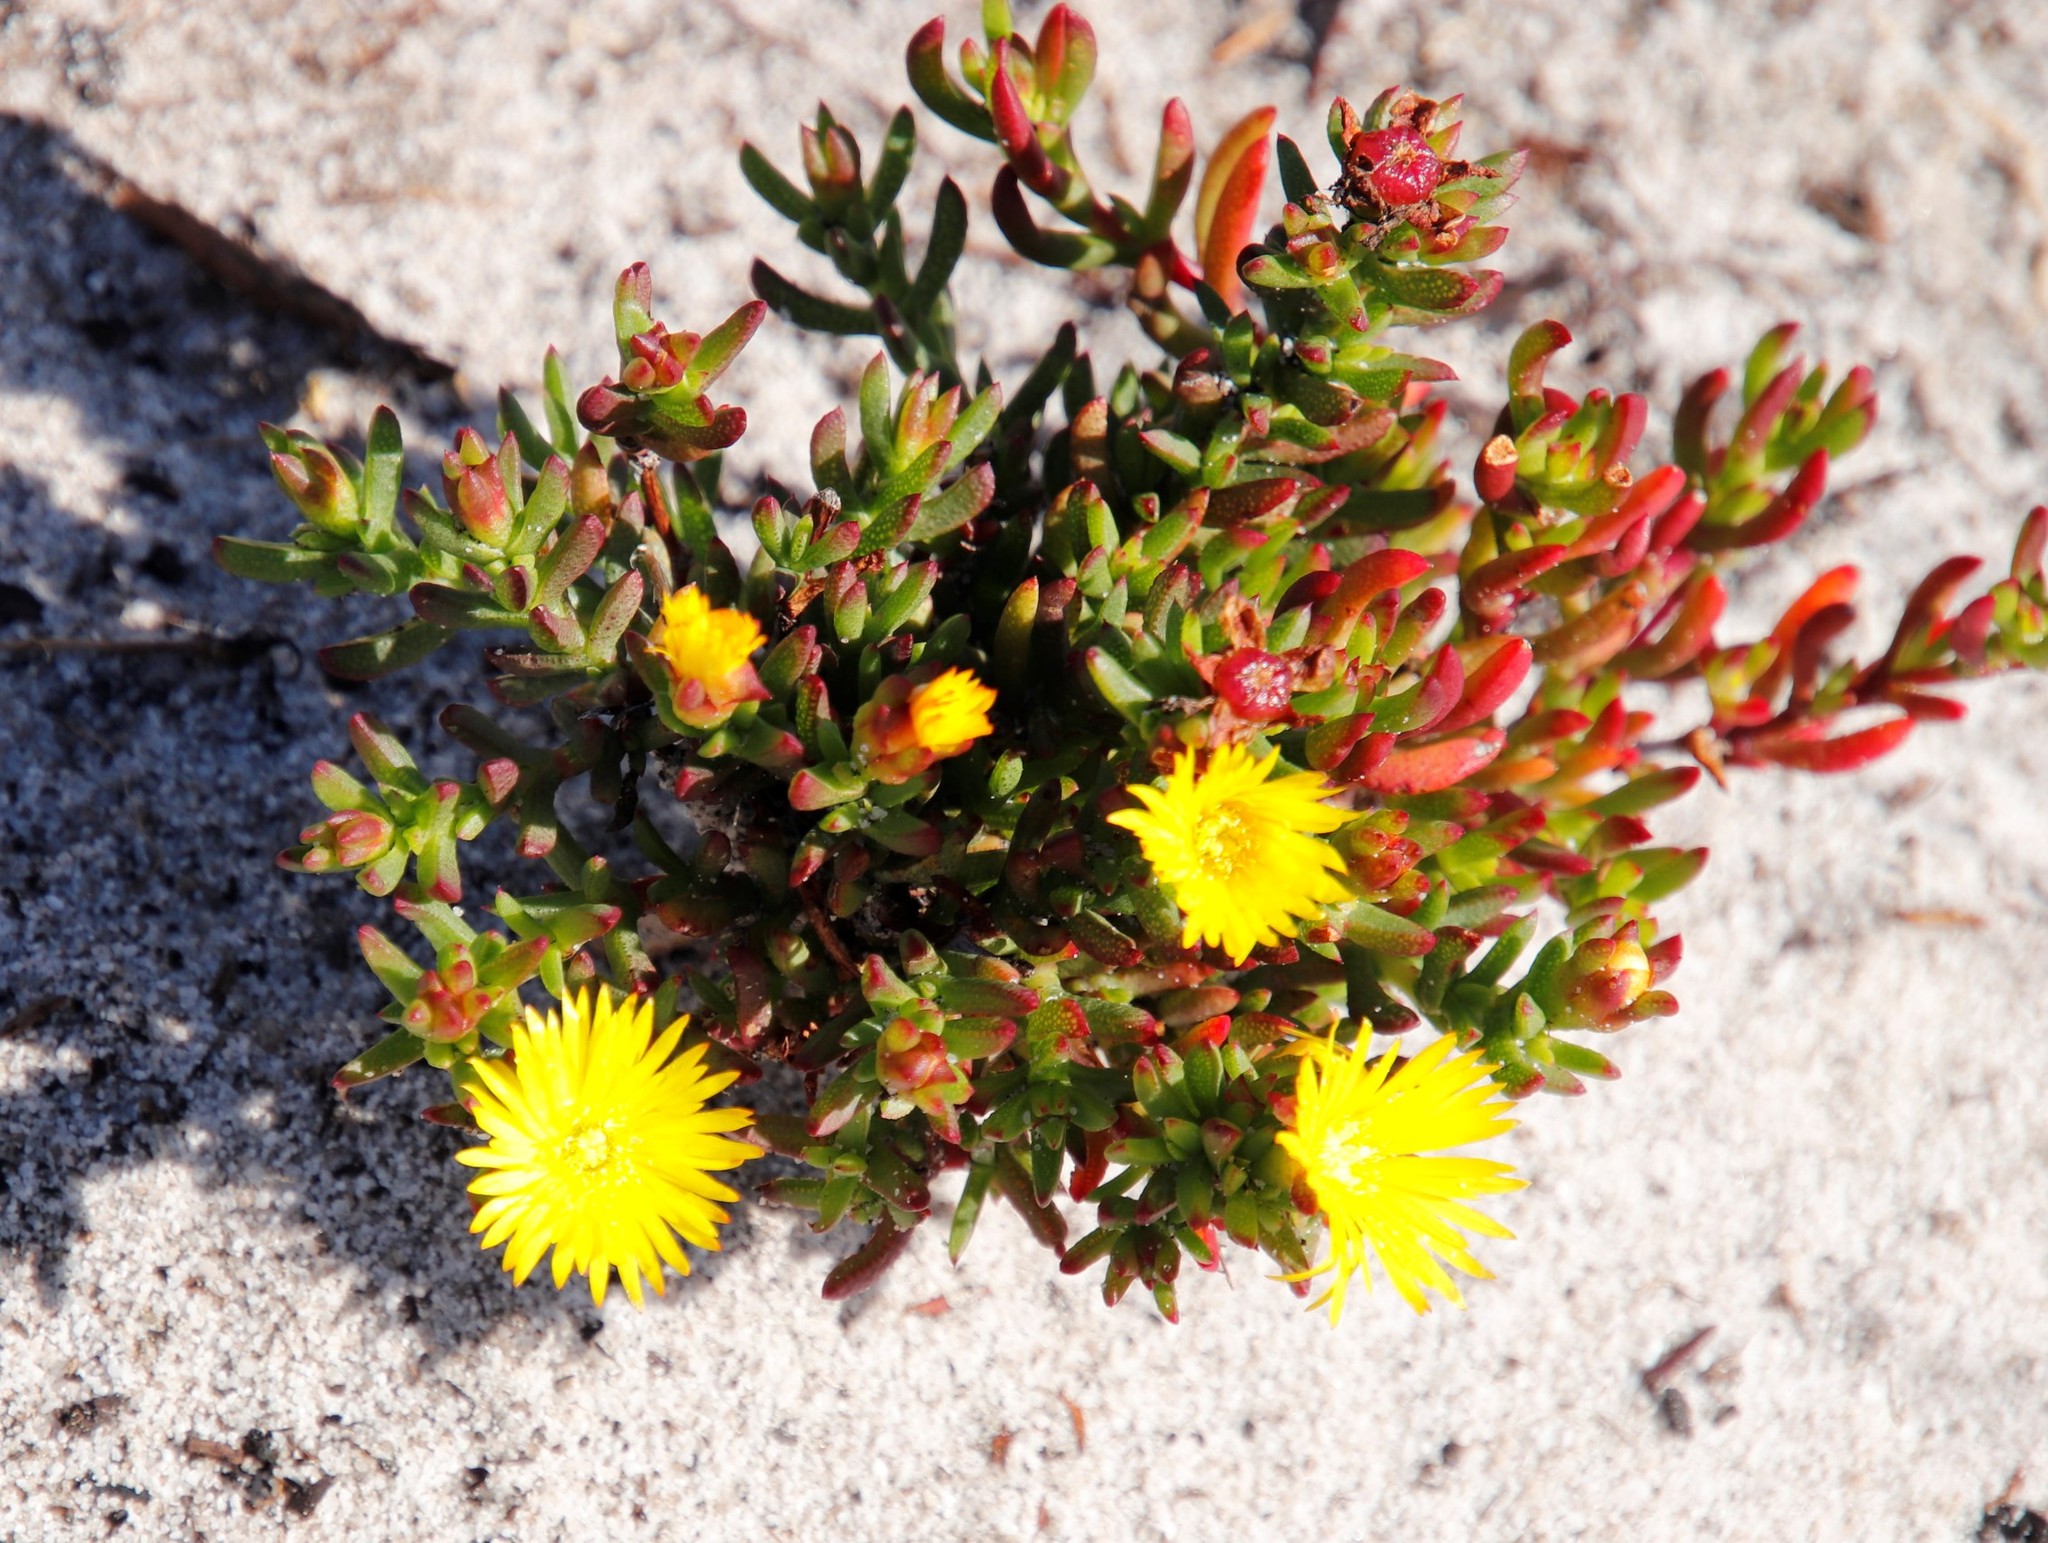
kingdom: Plantae
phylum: Tracheophyta
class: Magnoliopsida
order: Caryophyllales
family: Aizoaceae
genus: Lampranthus
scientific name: Lampranthus promontorii
